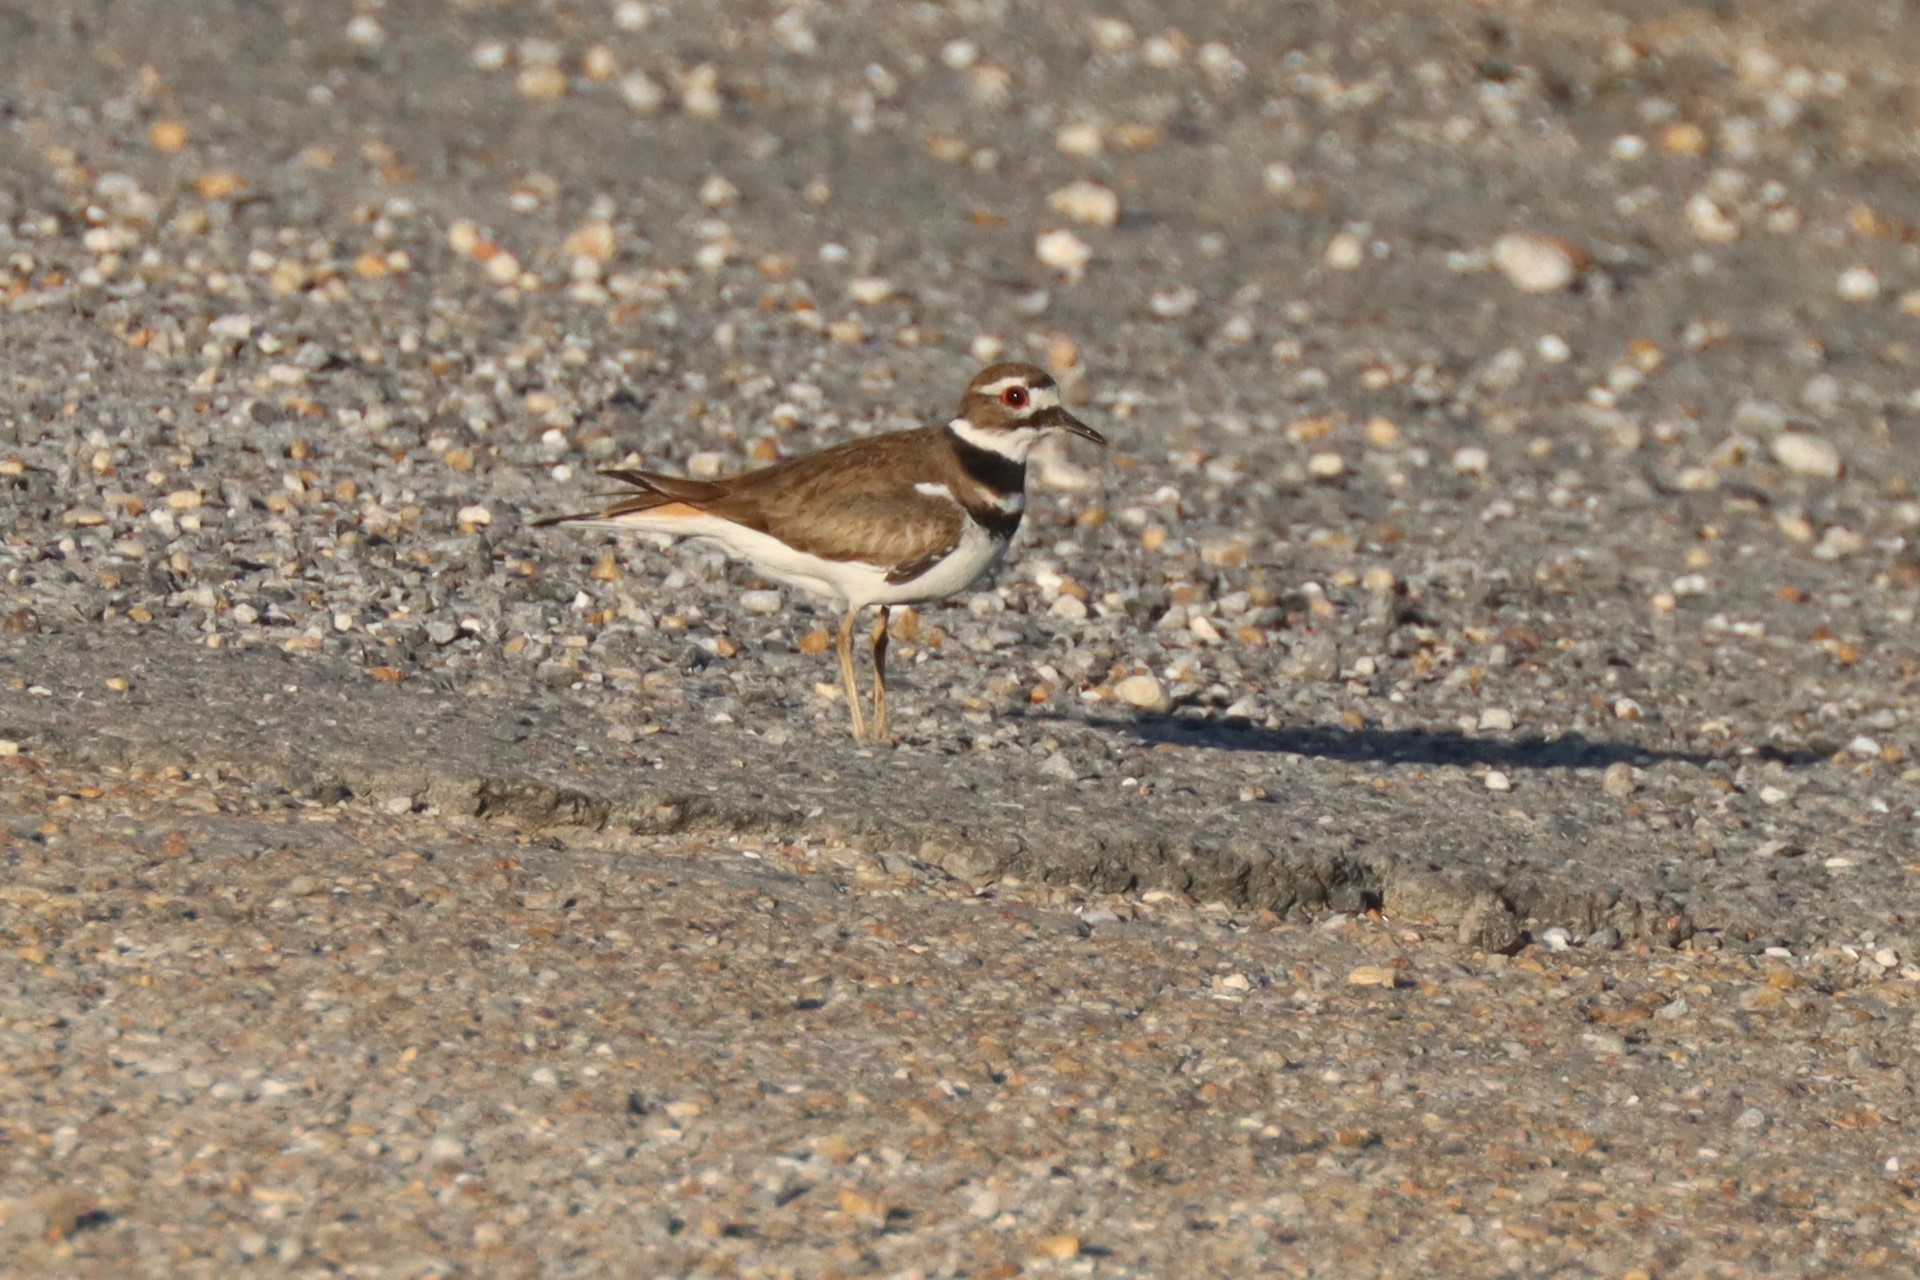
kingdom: Animalia
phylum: Chordata
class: Aves
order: Charadriiformes
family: Charadriidae
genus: Charadrius
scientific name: Charadrius vociferus
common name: Killdeer
